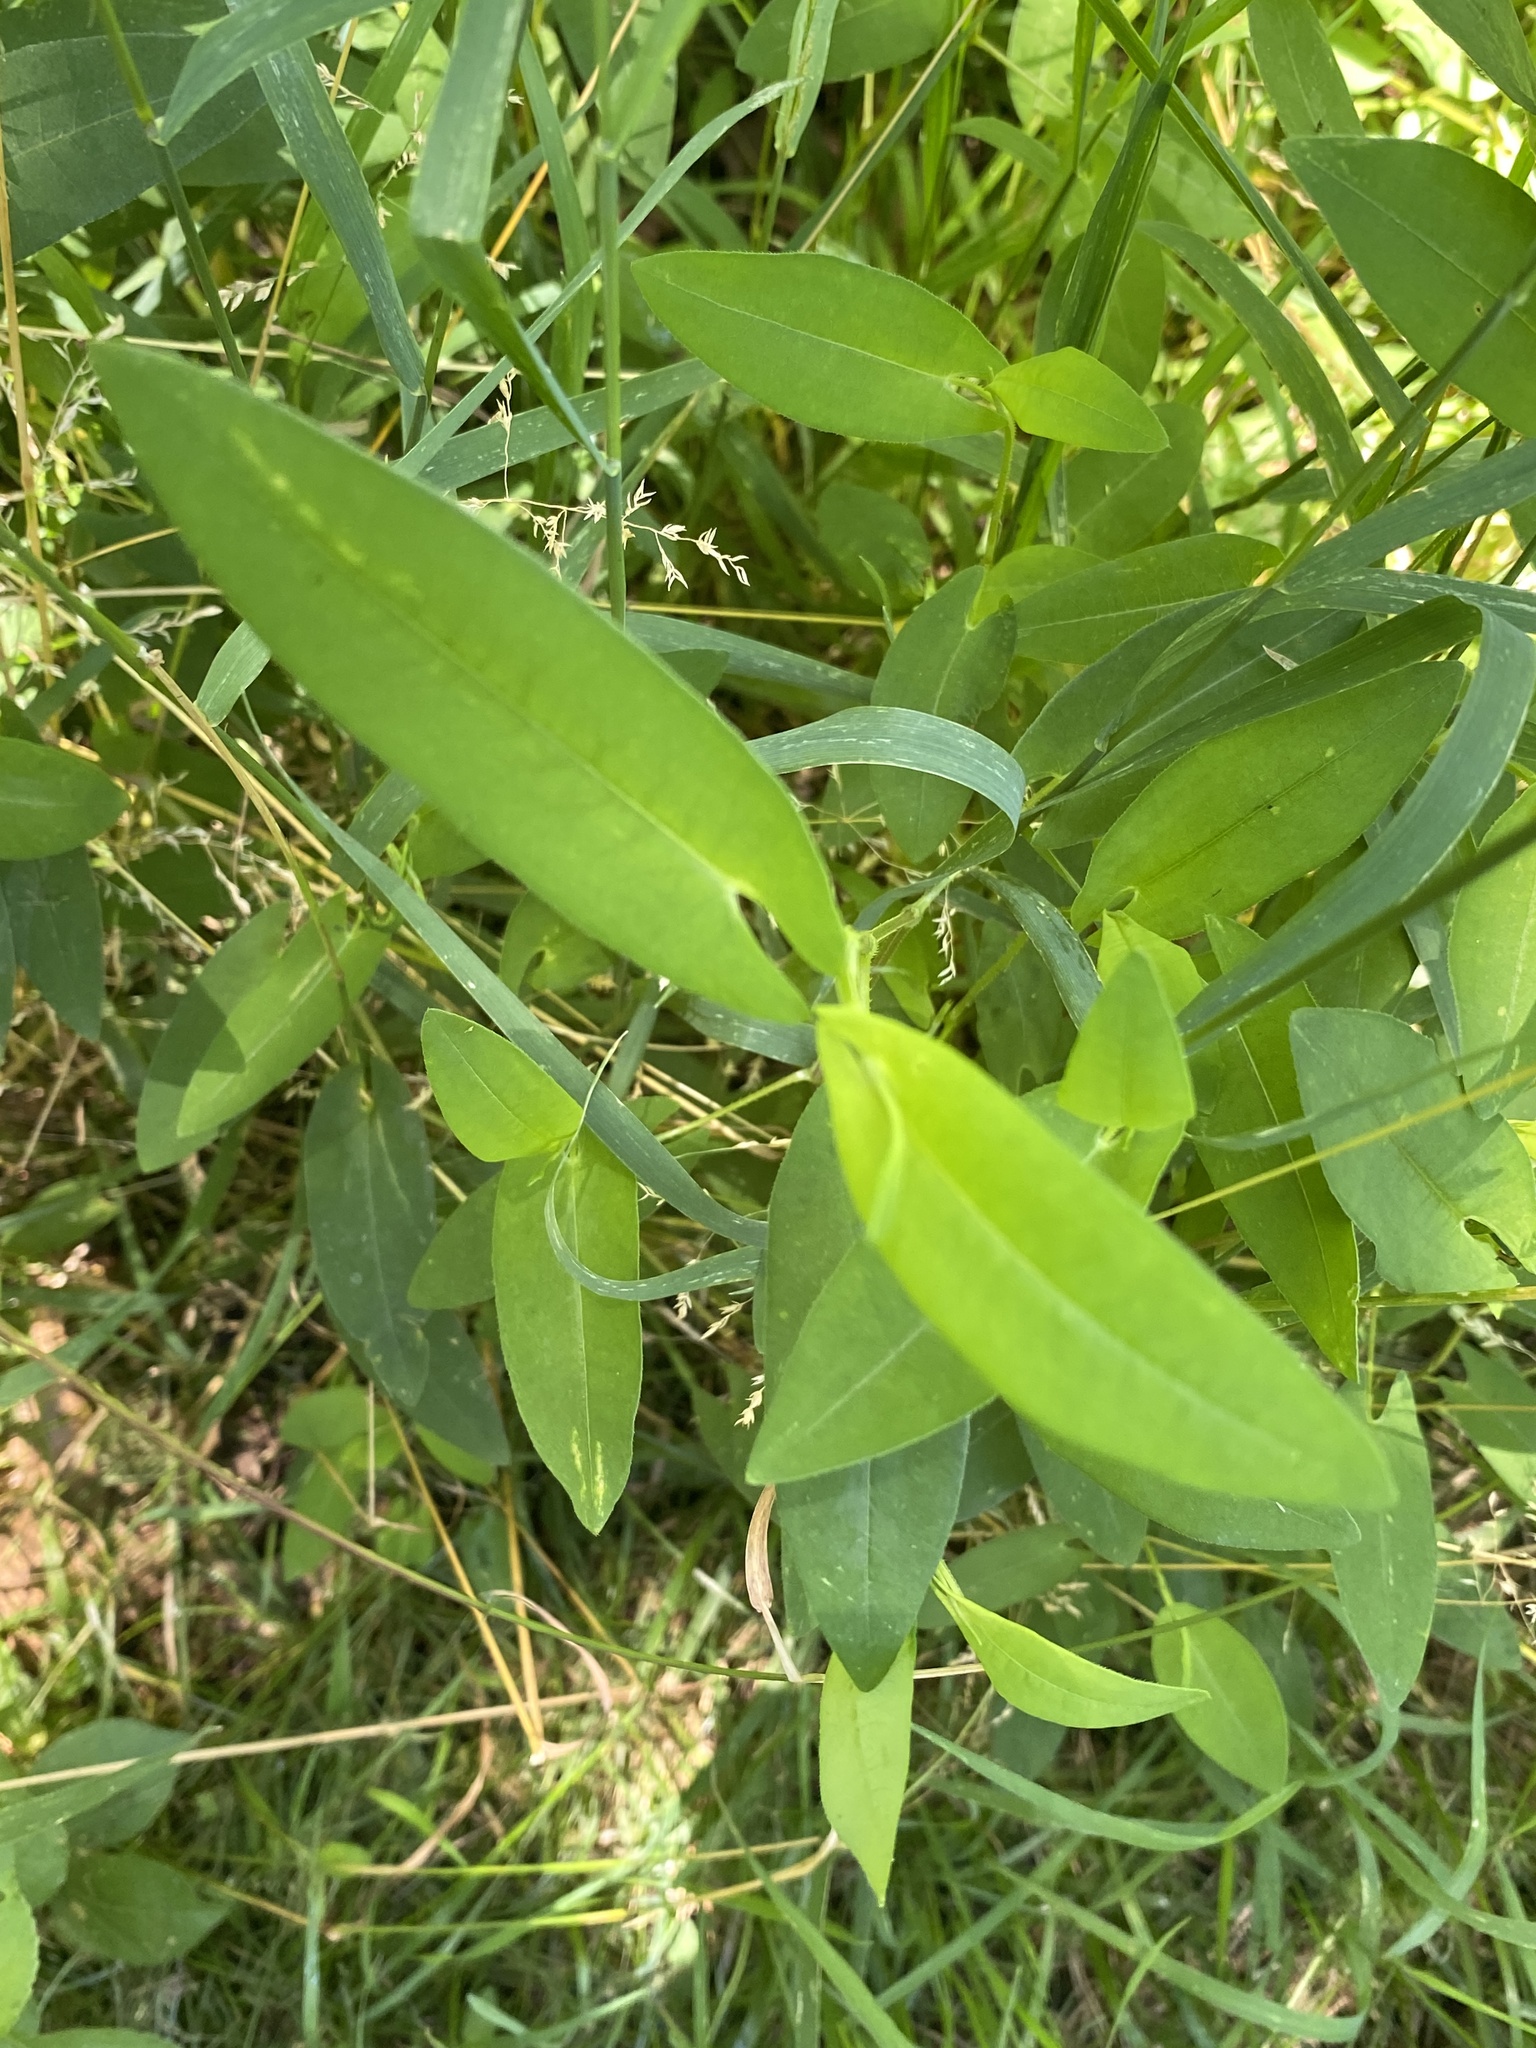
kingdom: Plantae
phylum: Tracheophyta
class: Magnoliopsida
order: Caryophyllales
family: Polygonaceae
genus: Persicaria
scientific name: Persicaria sagittata
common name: American tearthumb
